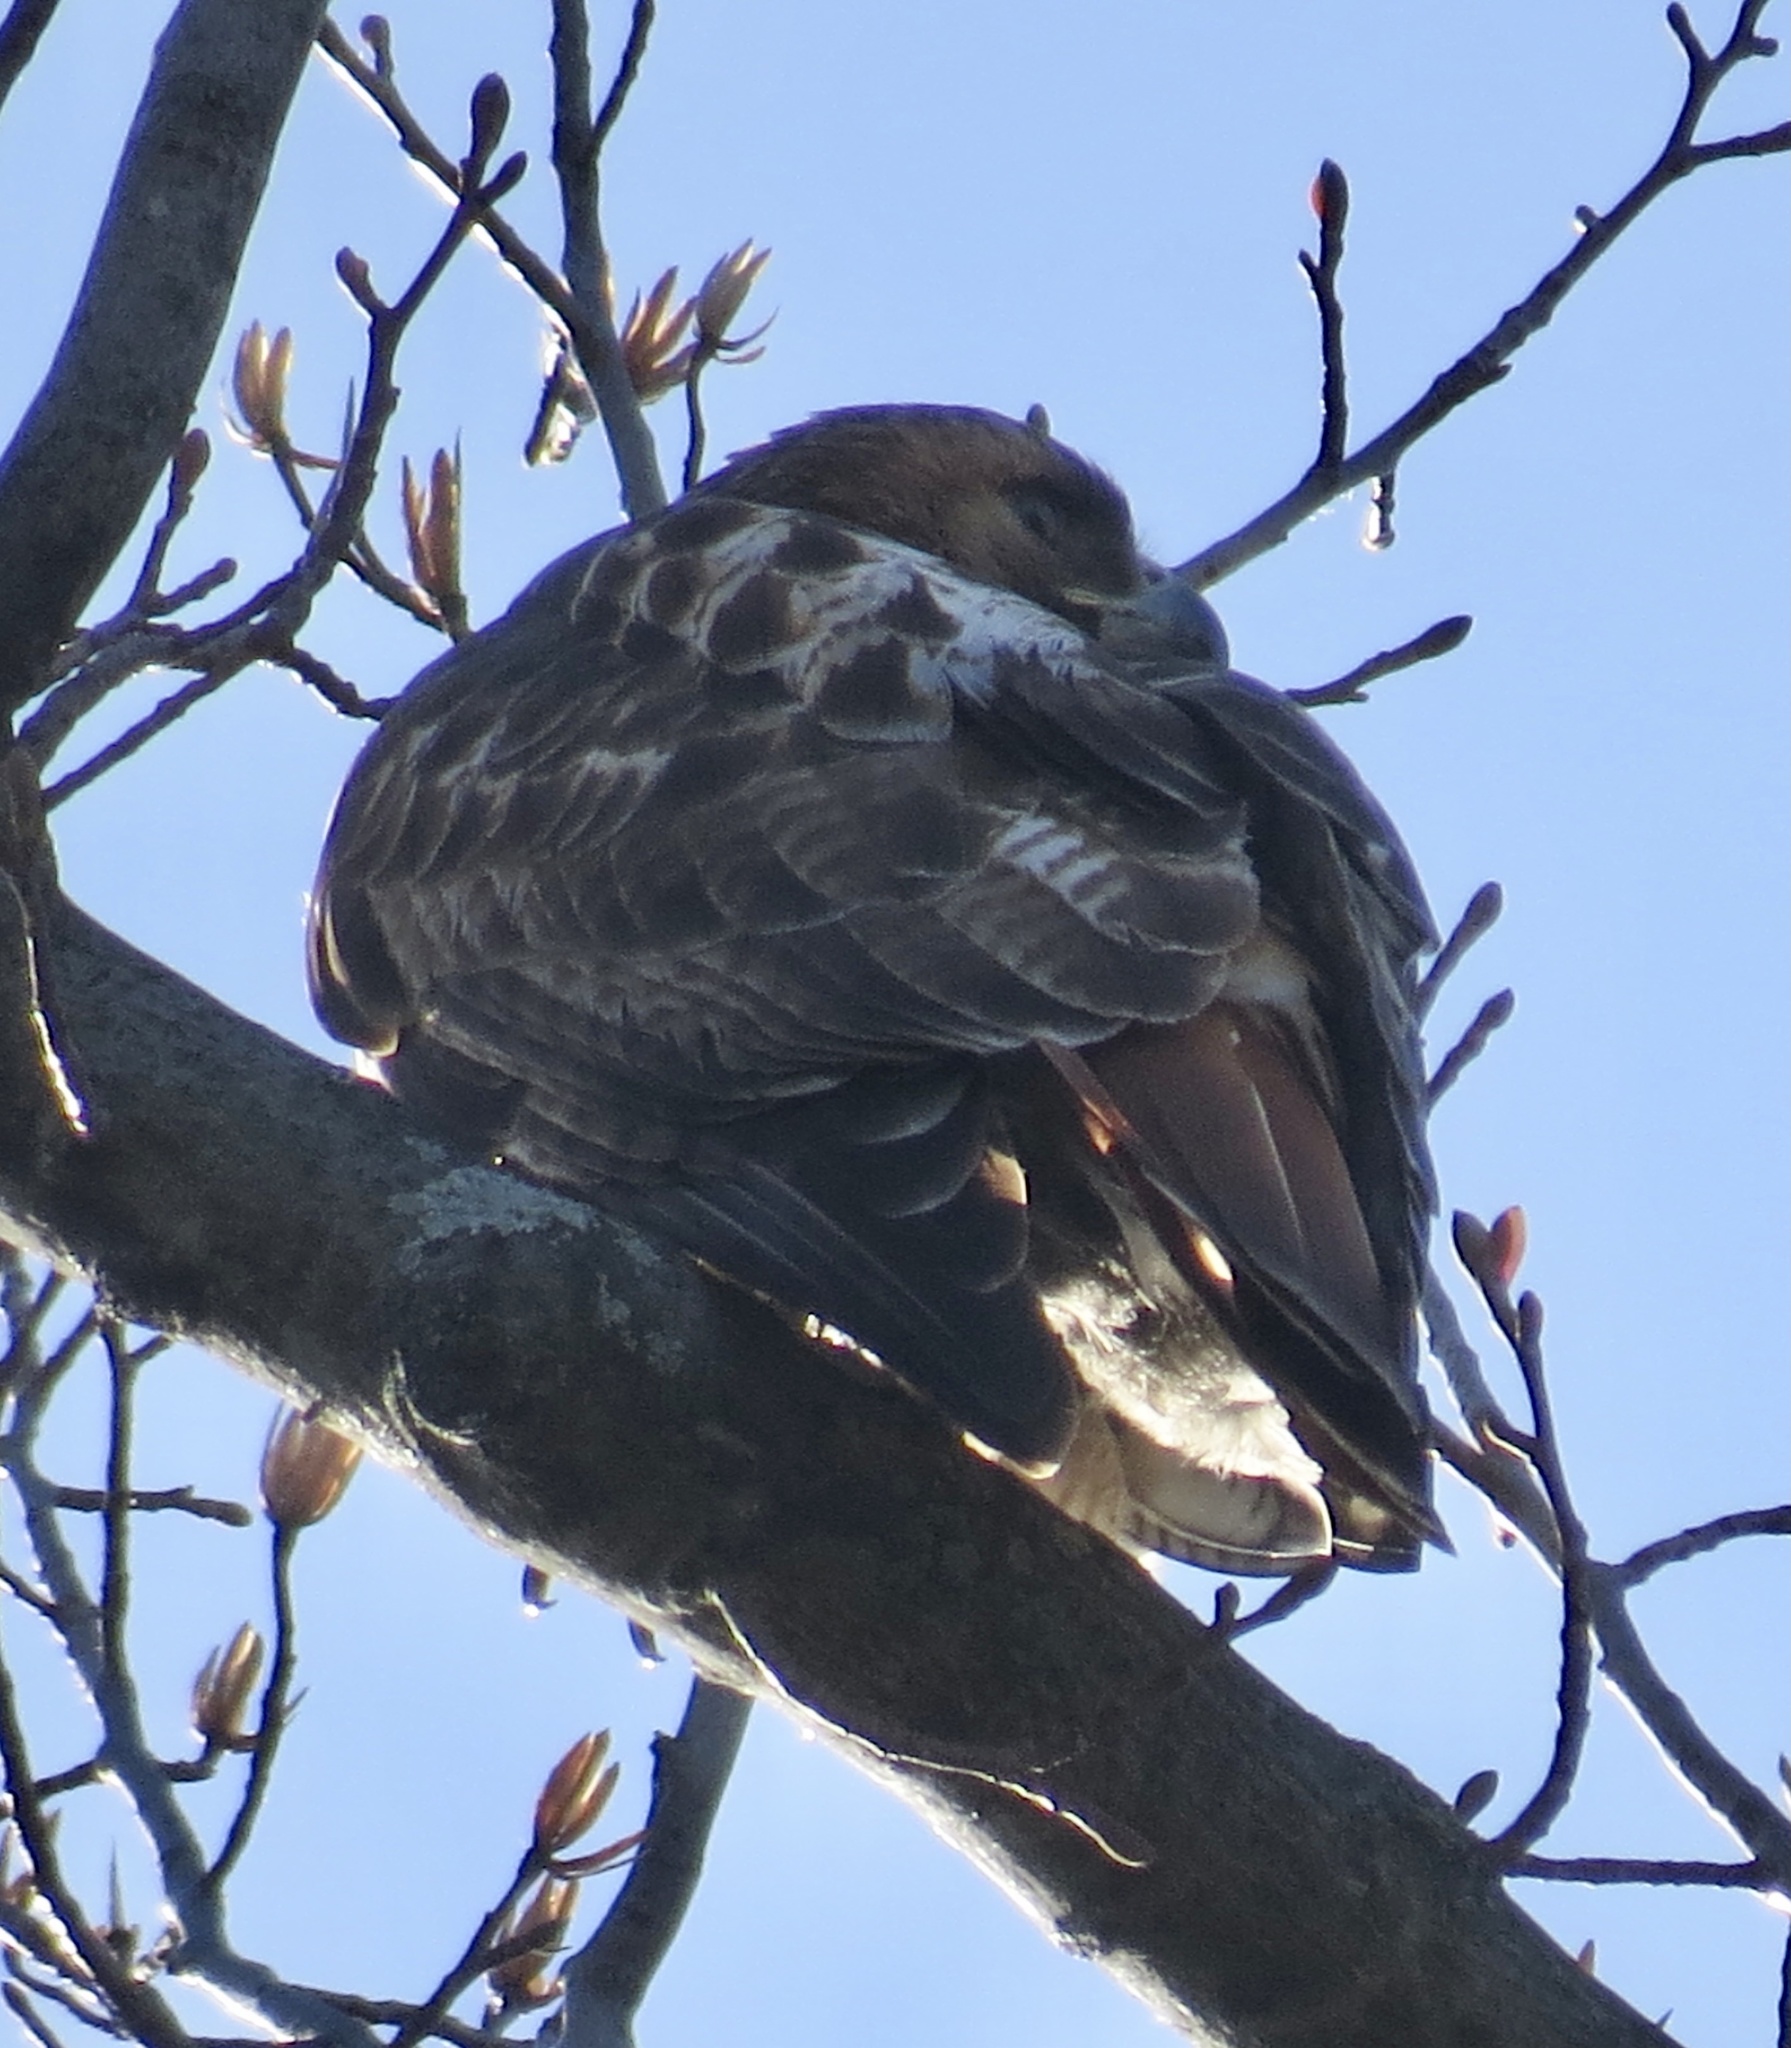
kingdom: Animalia
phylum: Chordata
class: Aves
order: Accipitriformes
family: Accipitridae
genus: Buteo
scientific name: Buteo jamaicensis
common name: Red-tailed hawk
